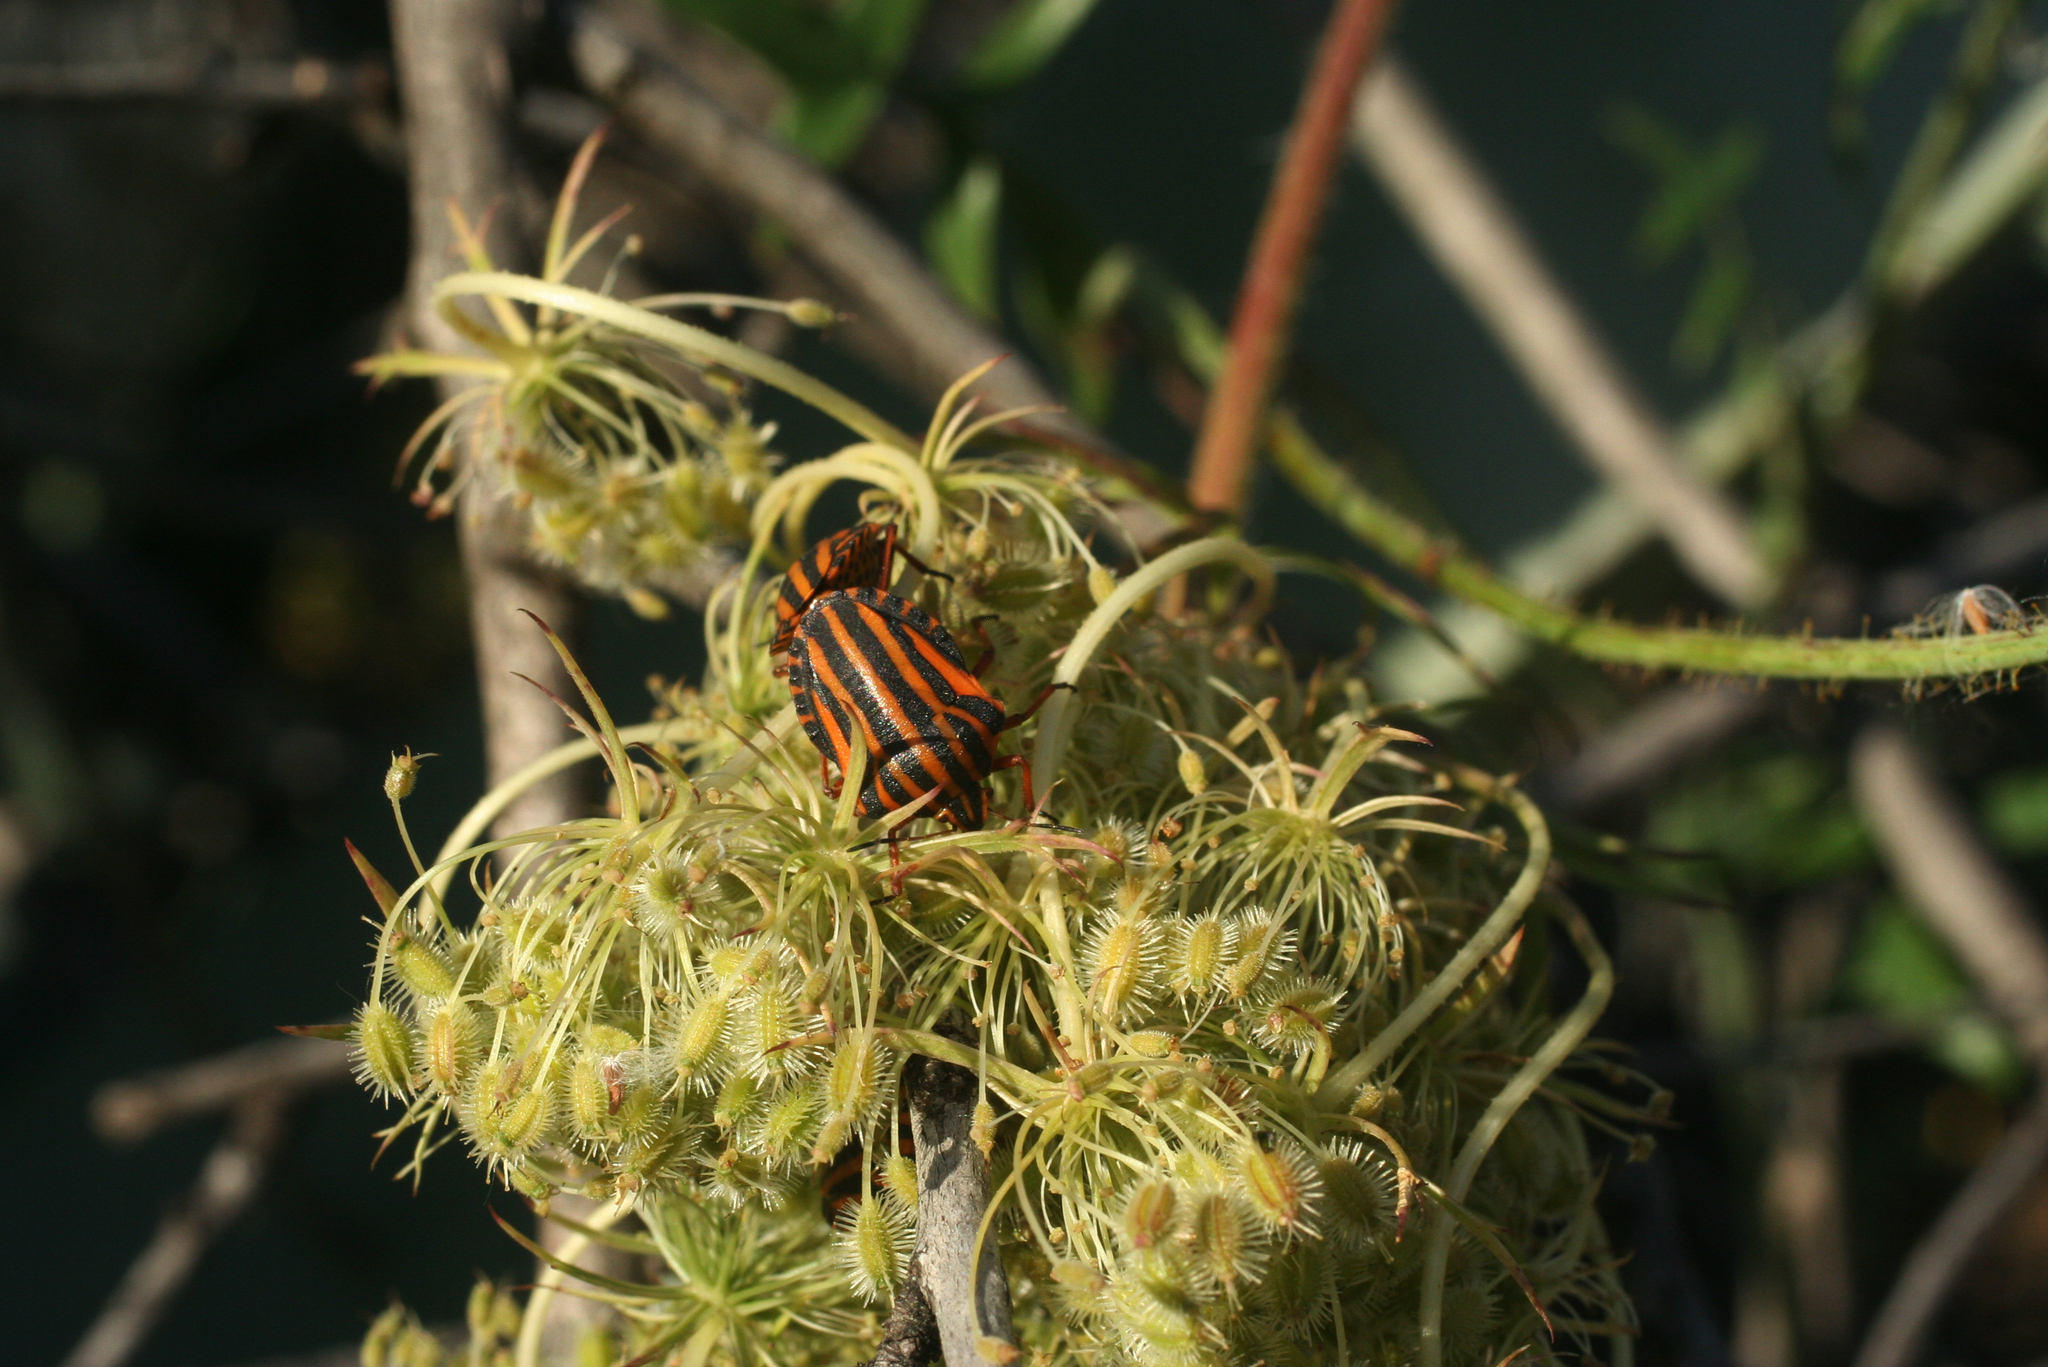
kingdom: Animalia
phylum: Arthropoda
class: Insecta
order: Hemiptera
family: Pentatomidae
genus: Graphosoma
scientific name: Graphosoma lineatum
